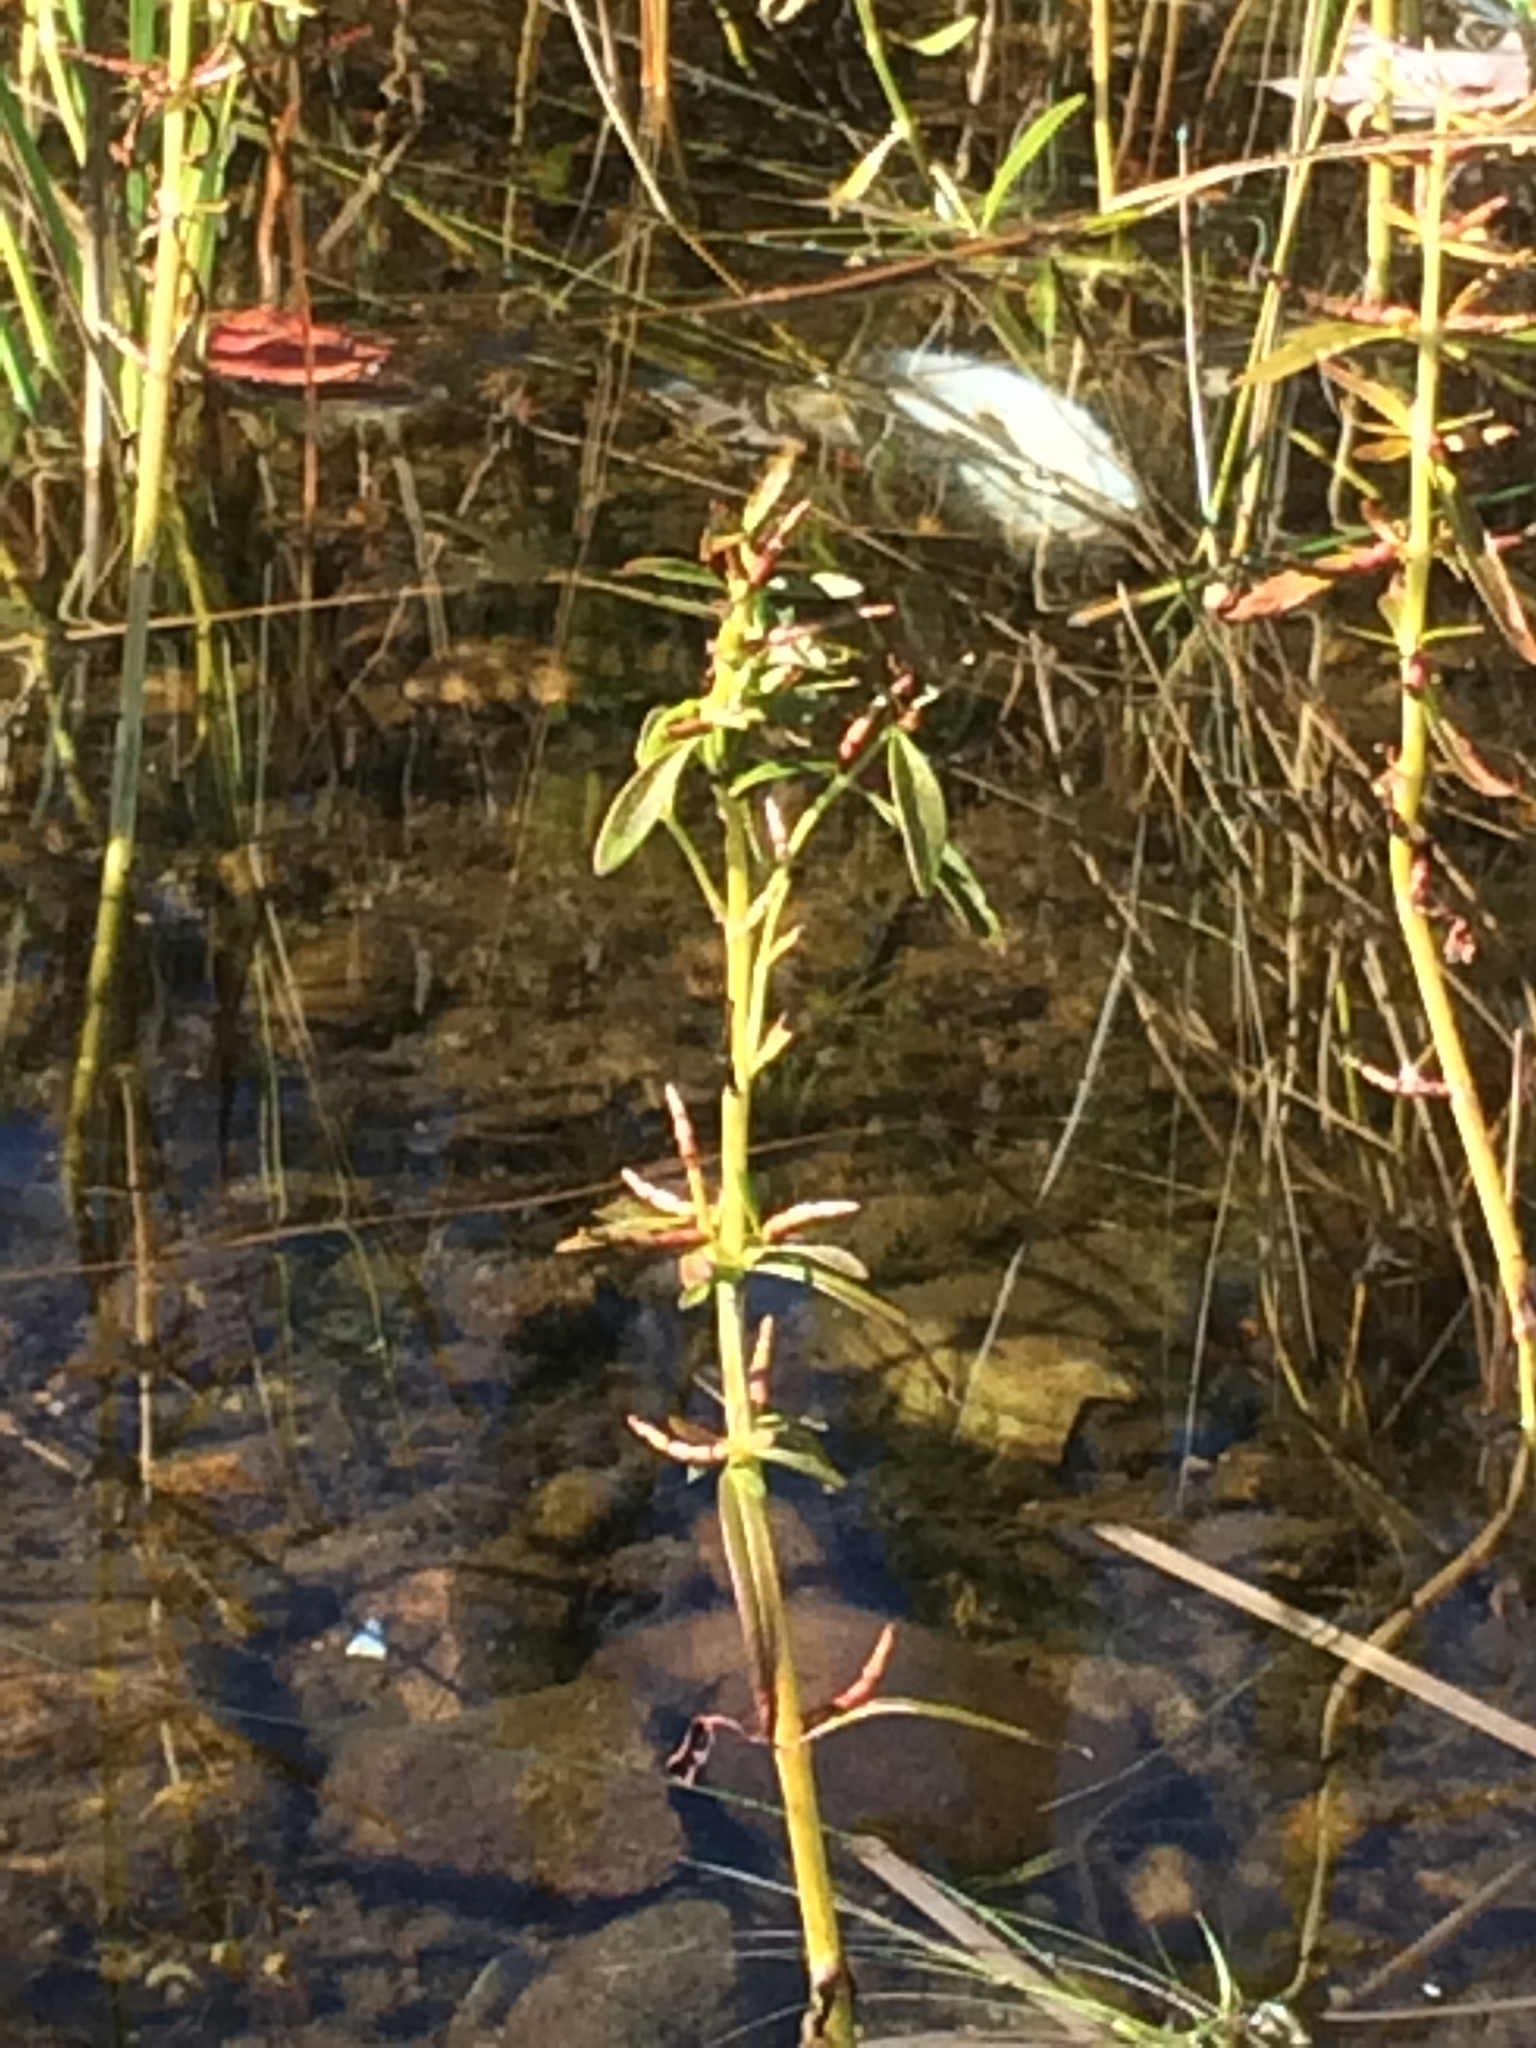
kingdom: Plantae
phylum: Tracheophyta
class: Magnoliopsida
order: Ericales
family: Primulaceae
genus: Lysimachia
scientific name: Lysimachia terrestris
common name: Lake loosestrife
